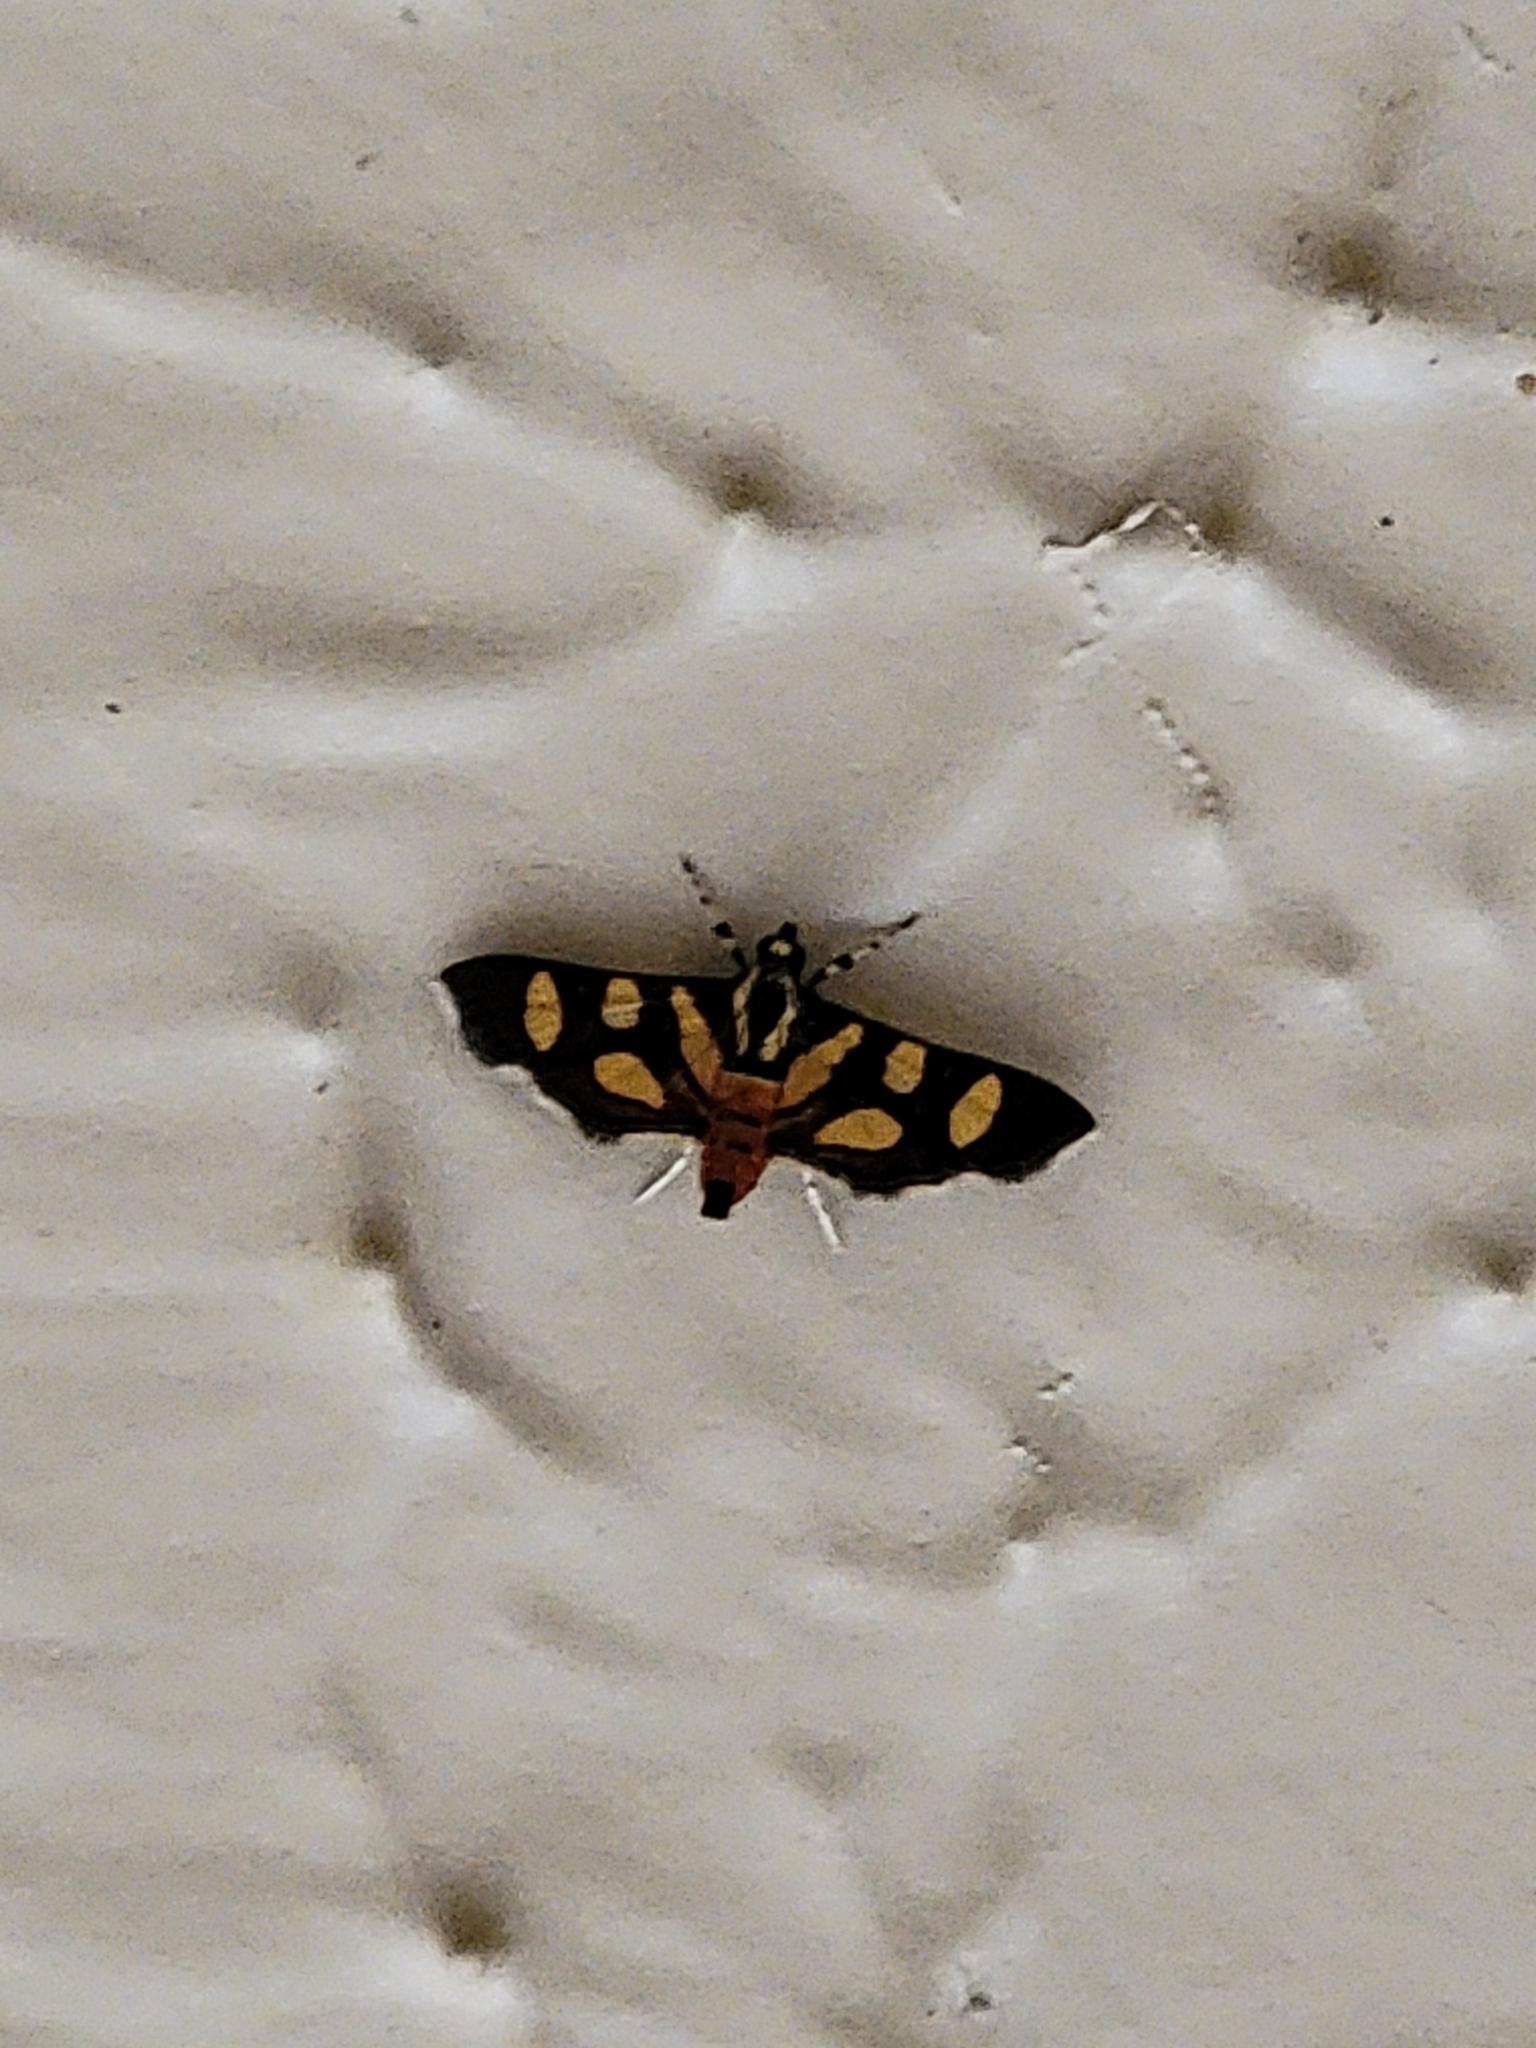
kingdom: Animalia
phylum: Arthropoda
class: Insecta
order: Lepidoptera
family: Crambidae
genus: Syngamia
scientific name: Syngamia florella
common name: Orange-spotted flower moth
